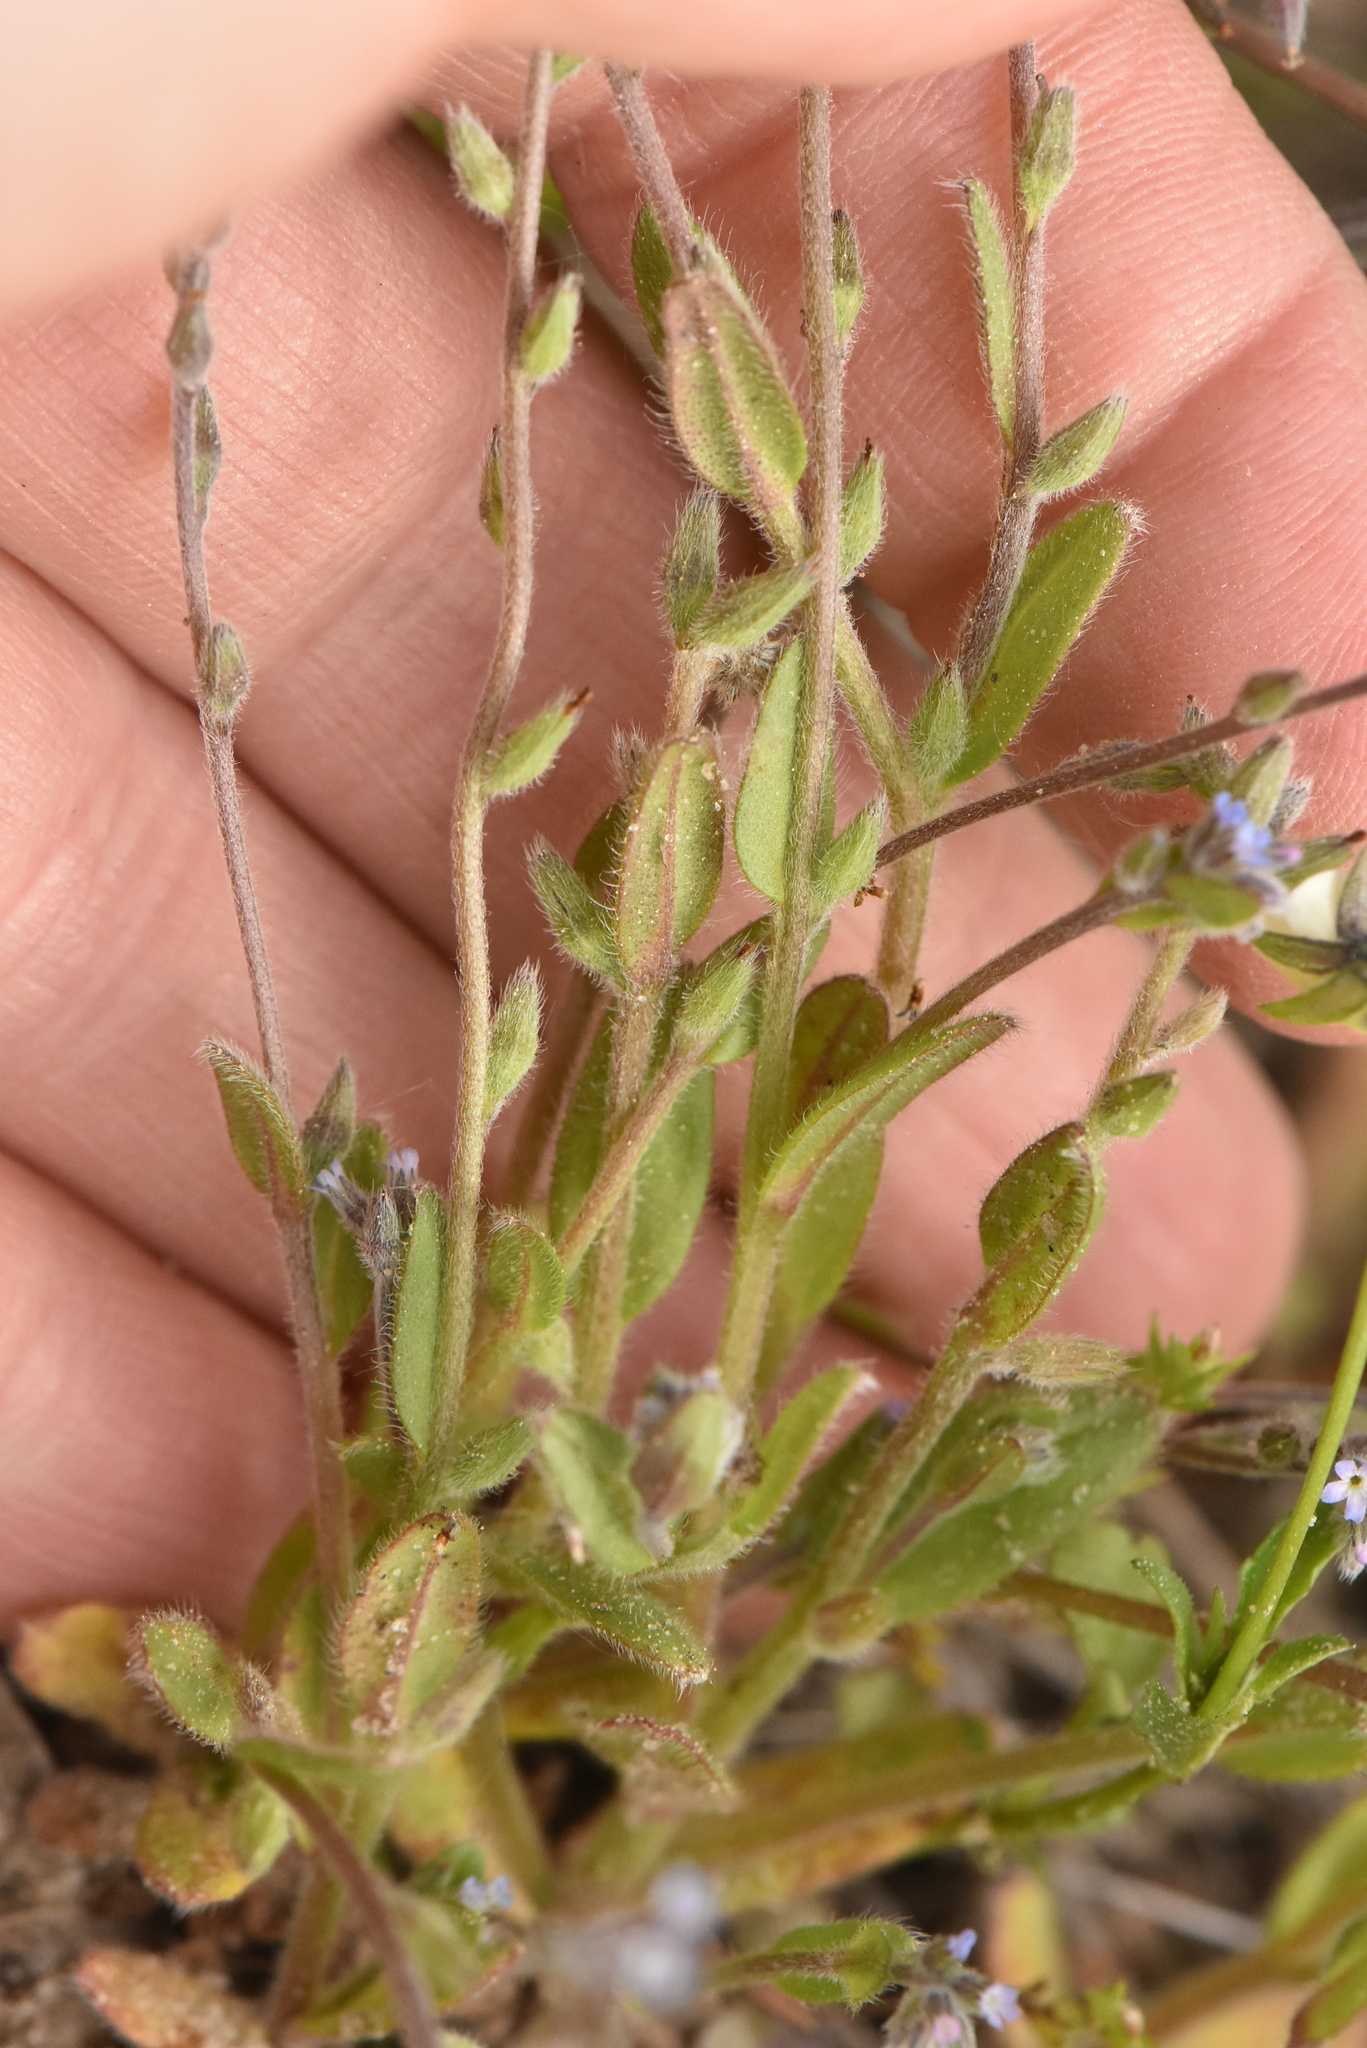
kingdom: Plantae
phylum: Tracheophyta
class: Magnoliopsida
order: Boraginales
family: Boraginaceae
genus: Myosotis
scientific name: Myosotis stricta
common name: Strict forget-me-not
